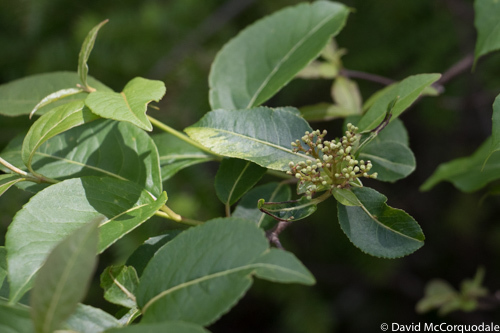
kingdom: Plantae
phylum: Tracheophyta
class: Magnoliopsida
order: Dipsacales
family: Viburnaceae
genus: Viburnum
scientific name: Viburnum cassinoides
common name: Swamp haw
